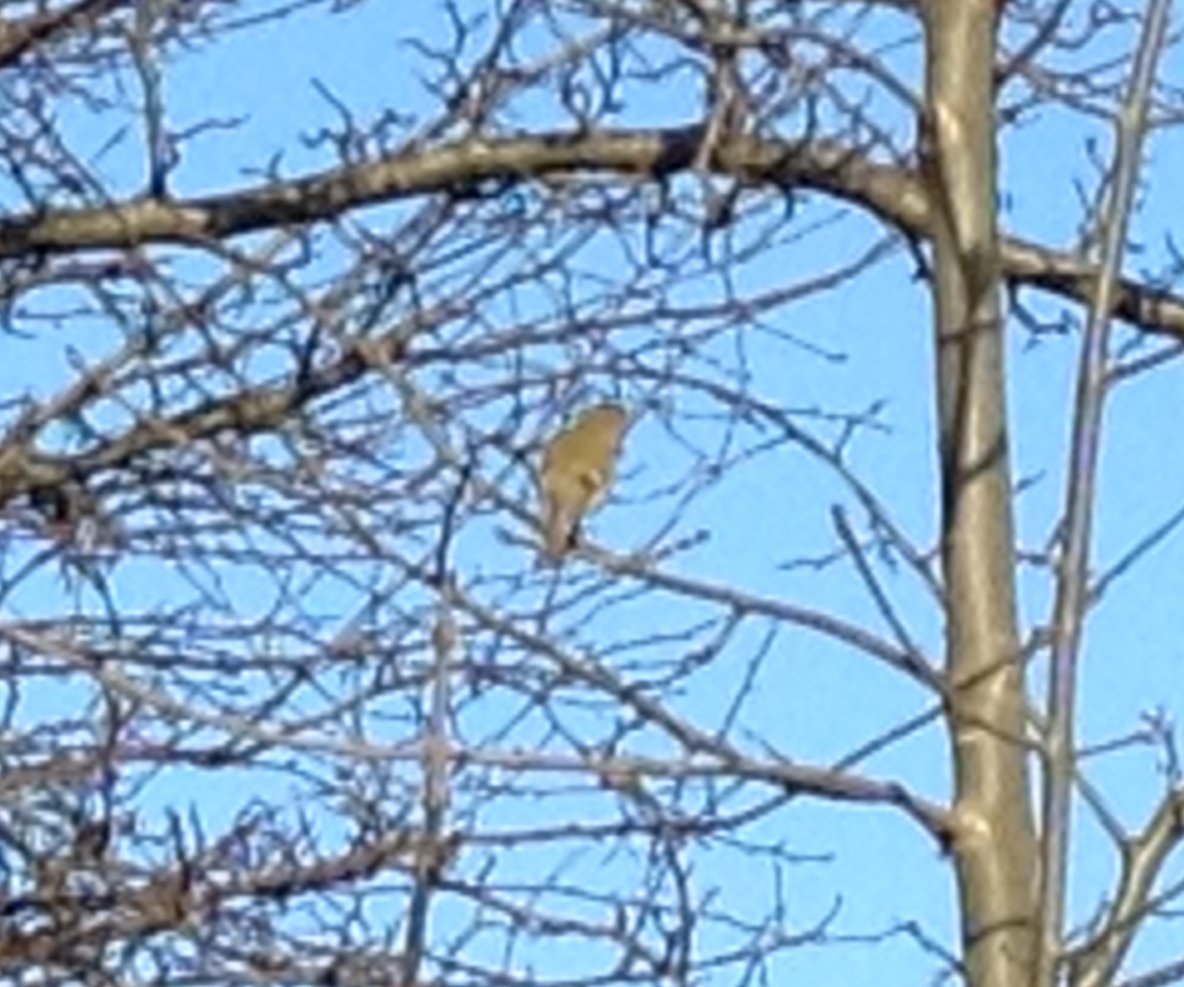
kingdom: Animalia
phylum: Chordata
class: Aves
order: Passeriformes
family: Regulidae
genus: Regulus
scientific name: Regulus regulus
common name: Goldcrest
